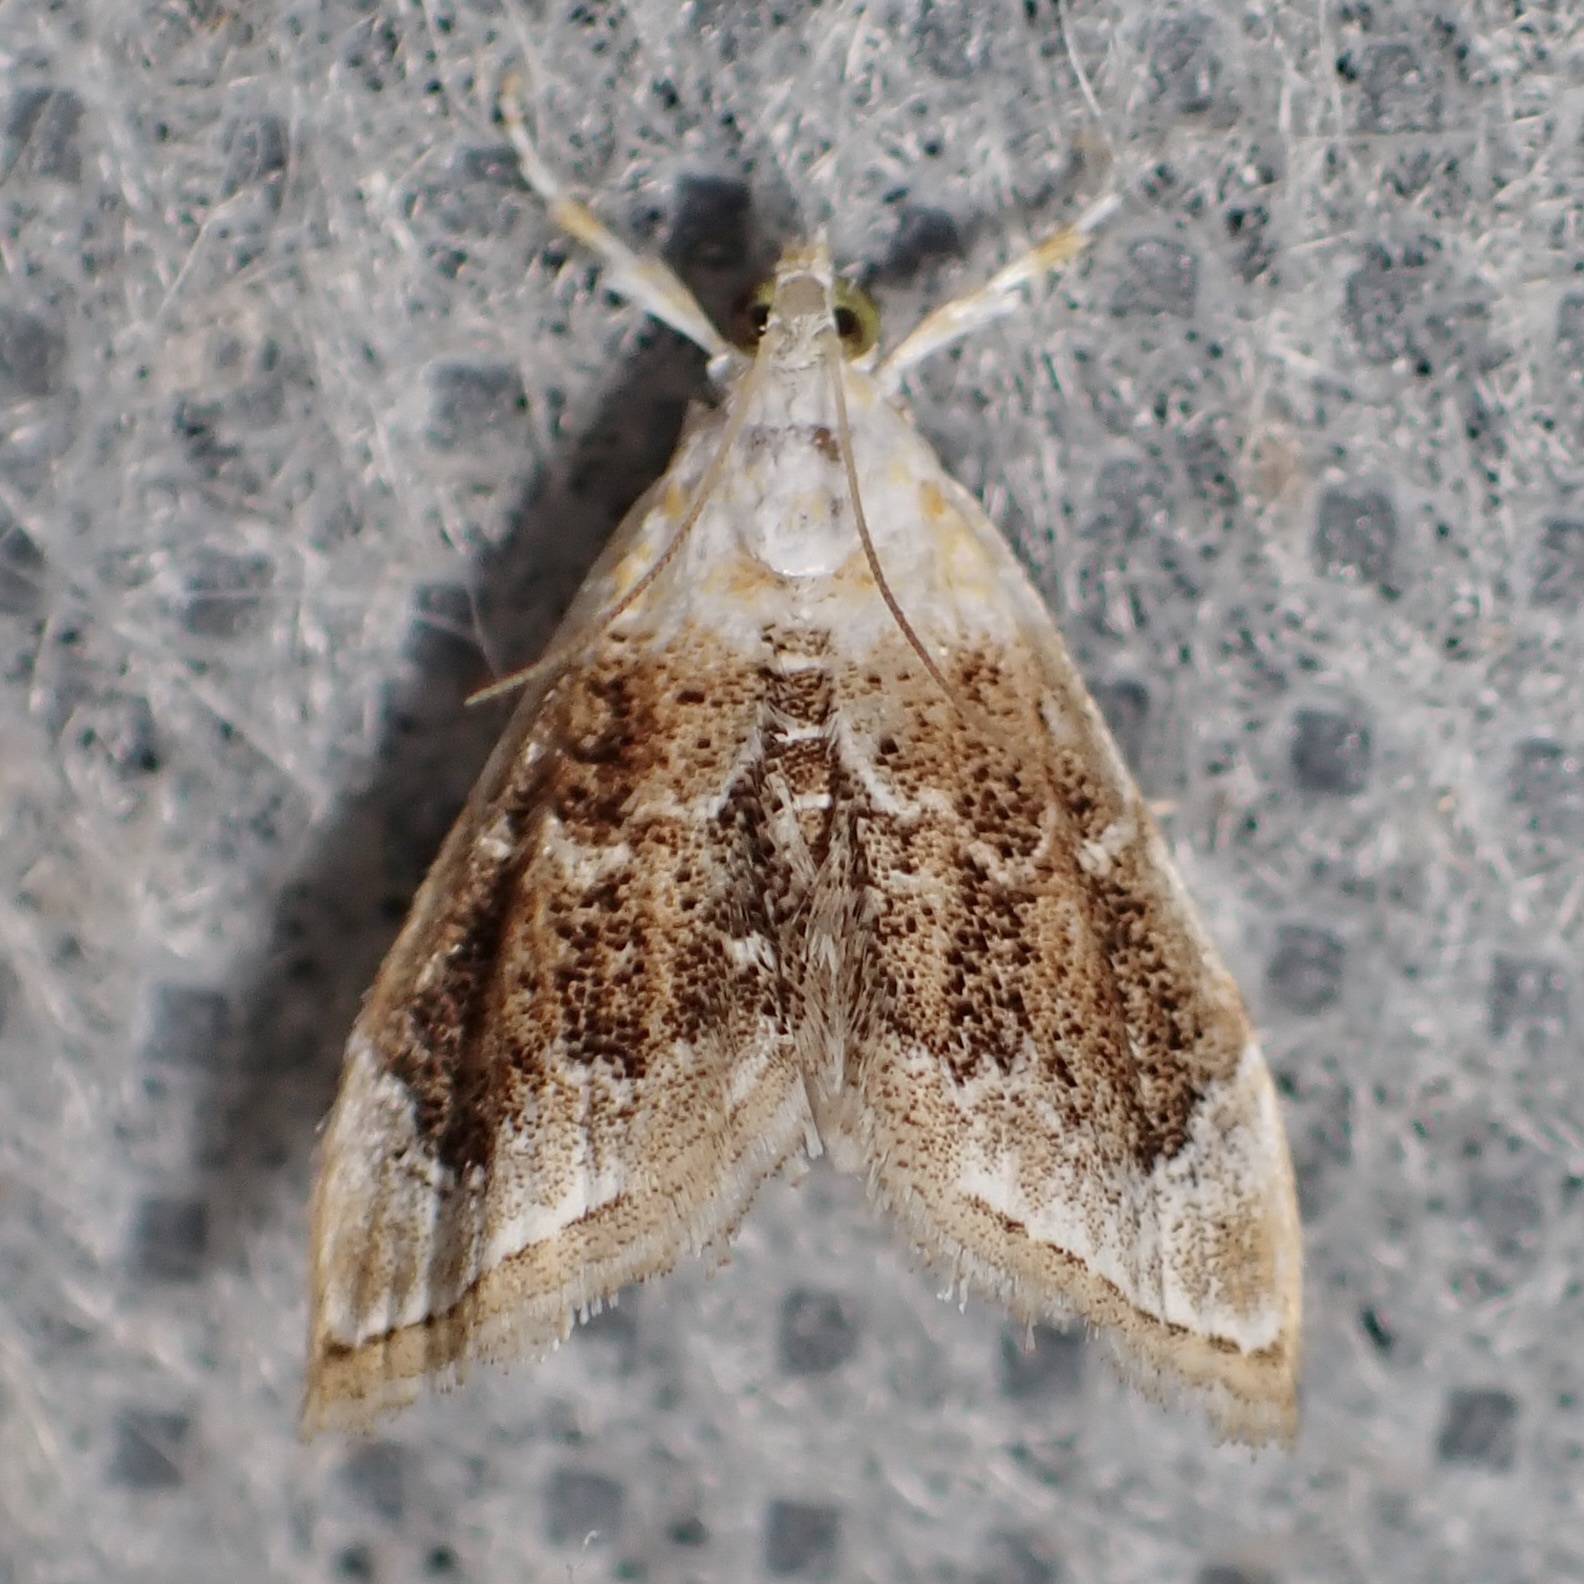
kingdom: Animalia
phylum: Arthropoda
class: Insecta
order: Lepidoptera
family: Crambidae
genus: Lipocosma
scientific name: Lipocosma polingi
